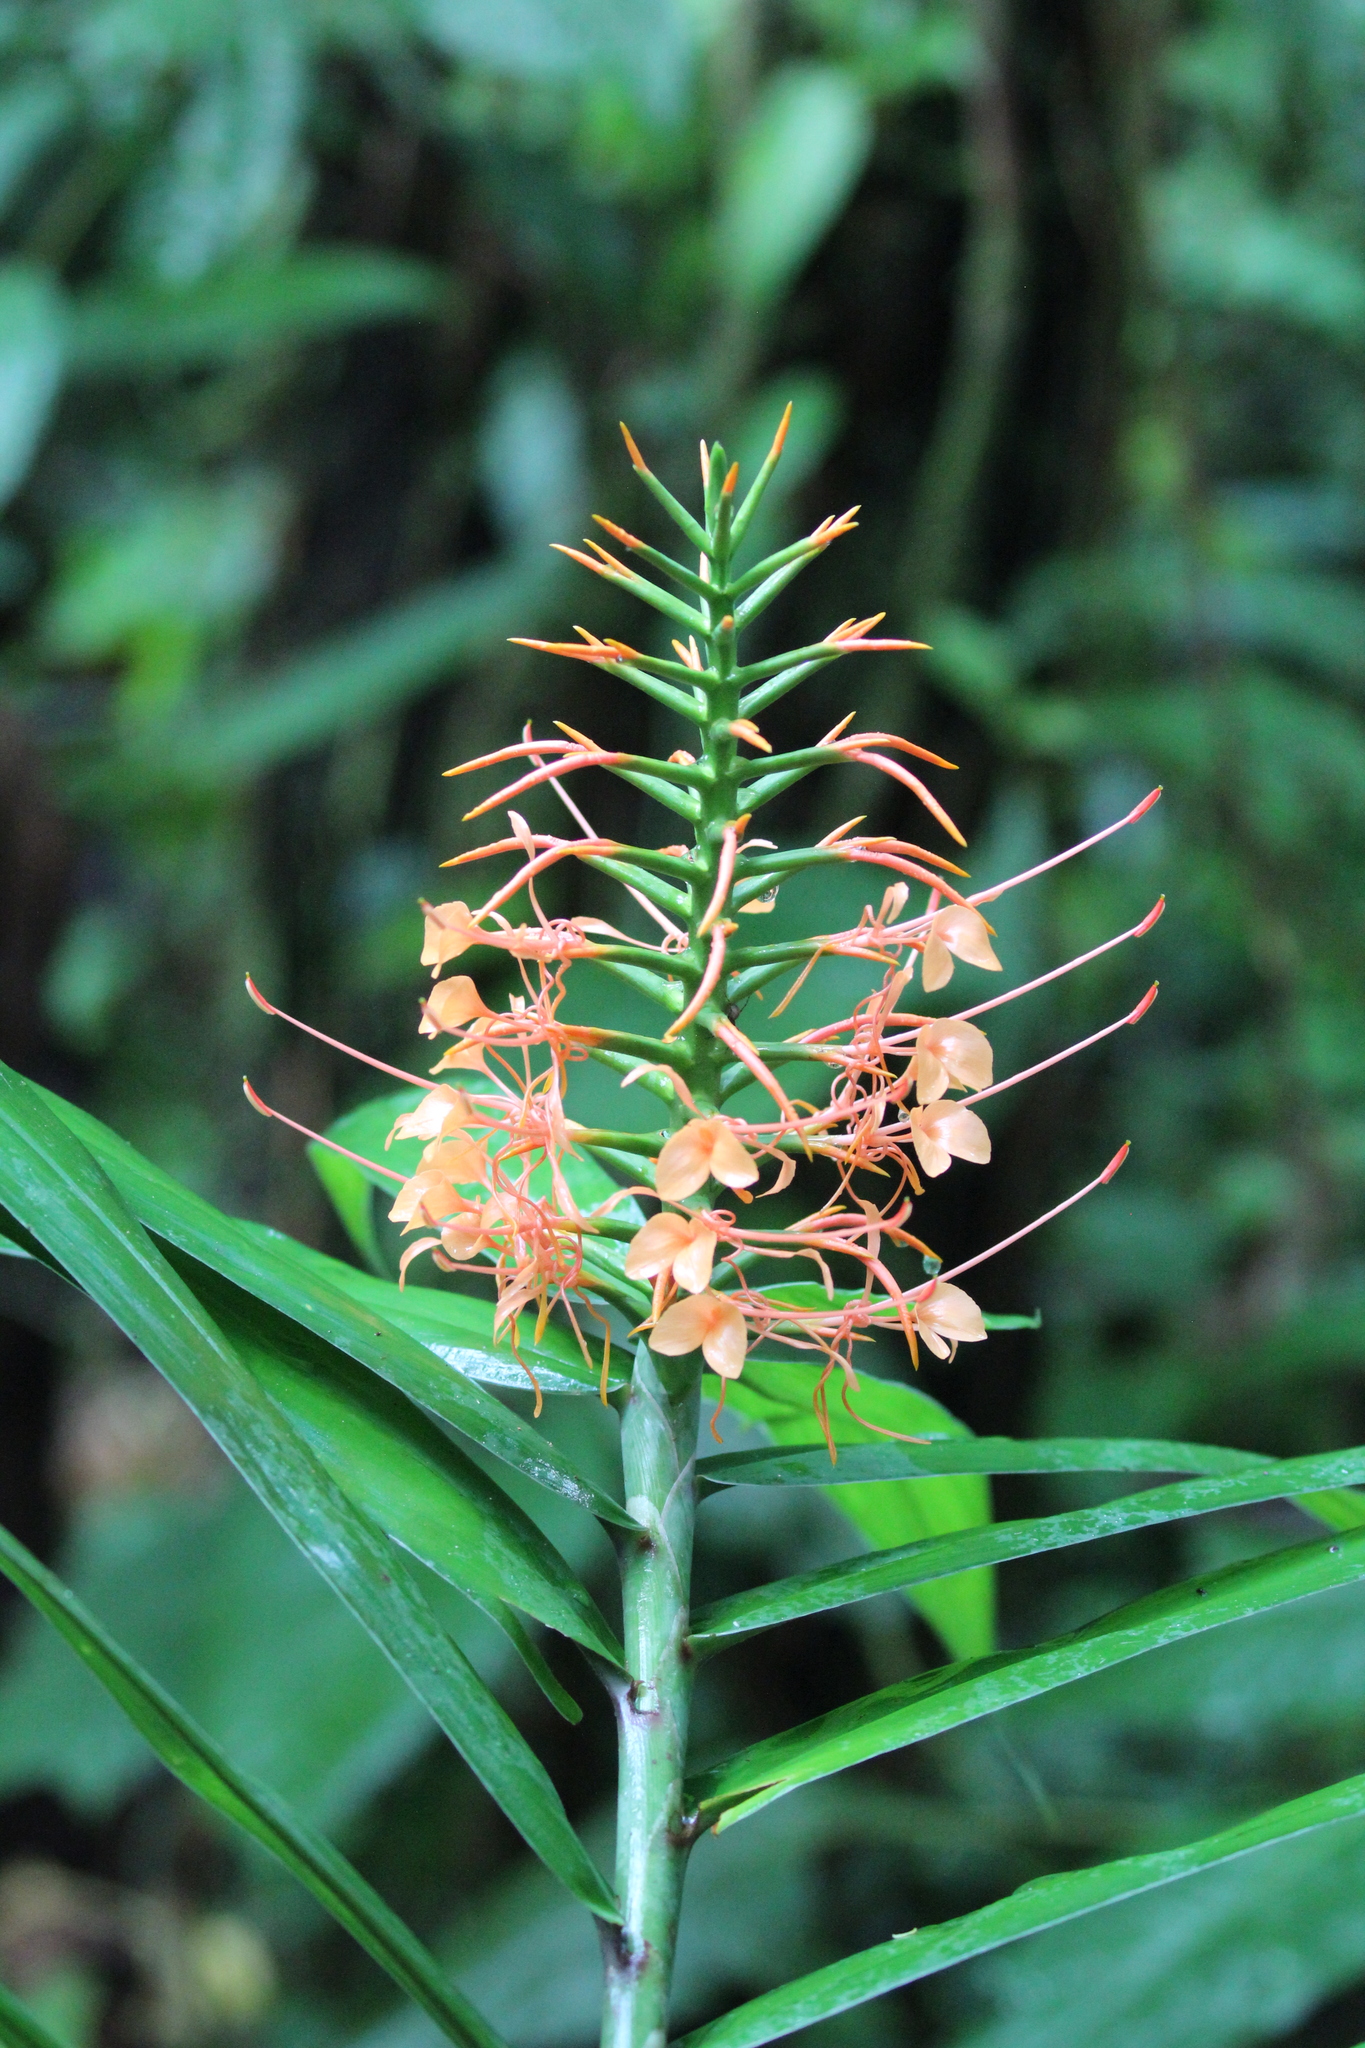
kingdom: Plantae
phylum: Tracheophyta
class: Liliopsida
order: Zingiberales
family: Zingiberaceae
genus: Hedychium
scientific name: Hedychium coccineum
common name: Red ginger-lily
